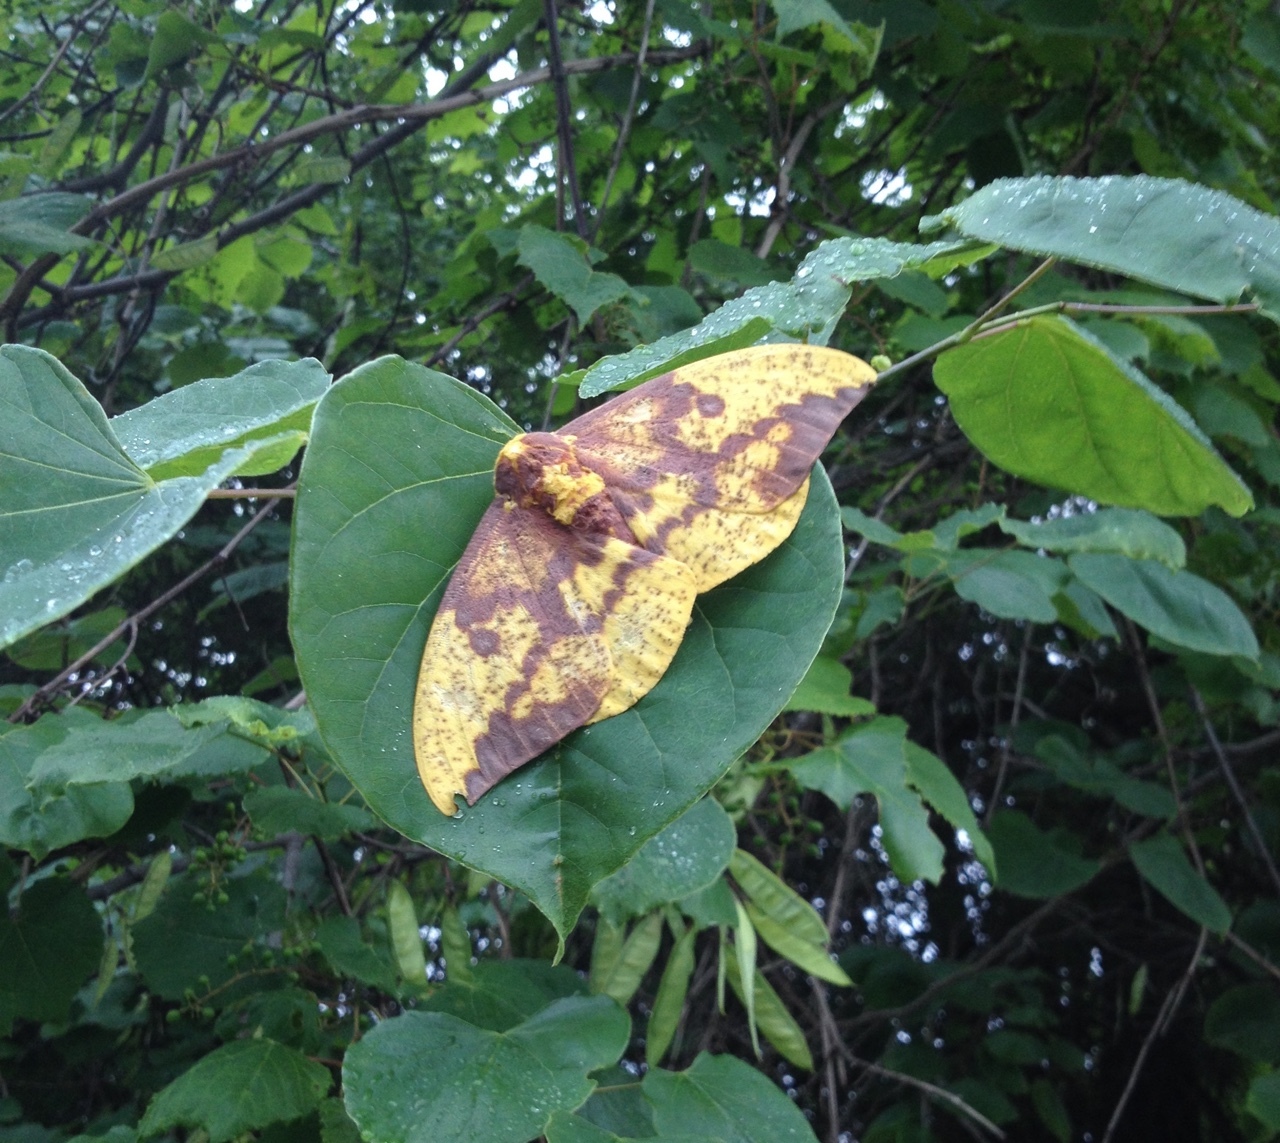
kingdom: Animalia
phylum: Arthropoda
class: Insecta
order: Lepidoptera
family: Saturniidae
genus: Eacles
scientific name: Eacles imperialis
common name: Imperial moth
